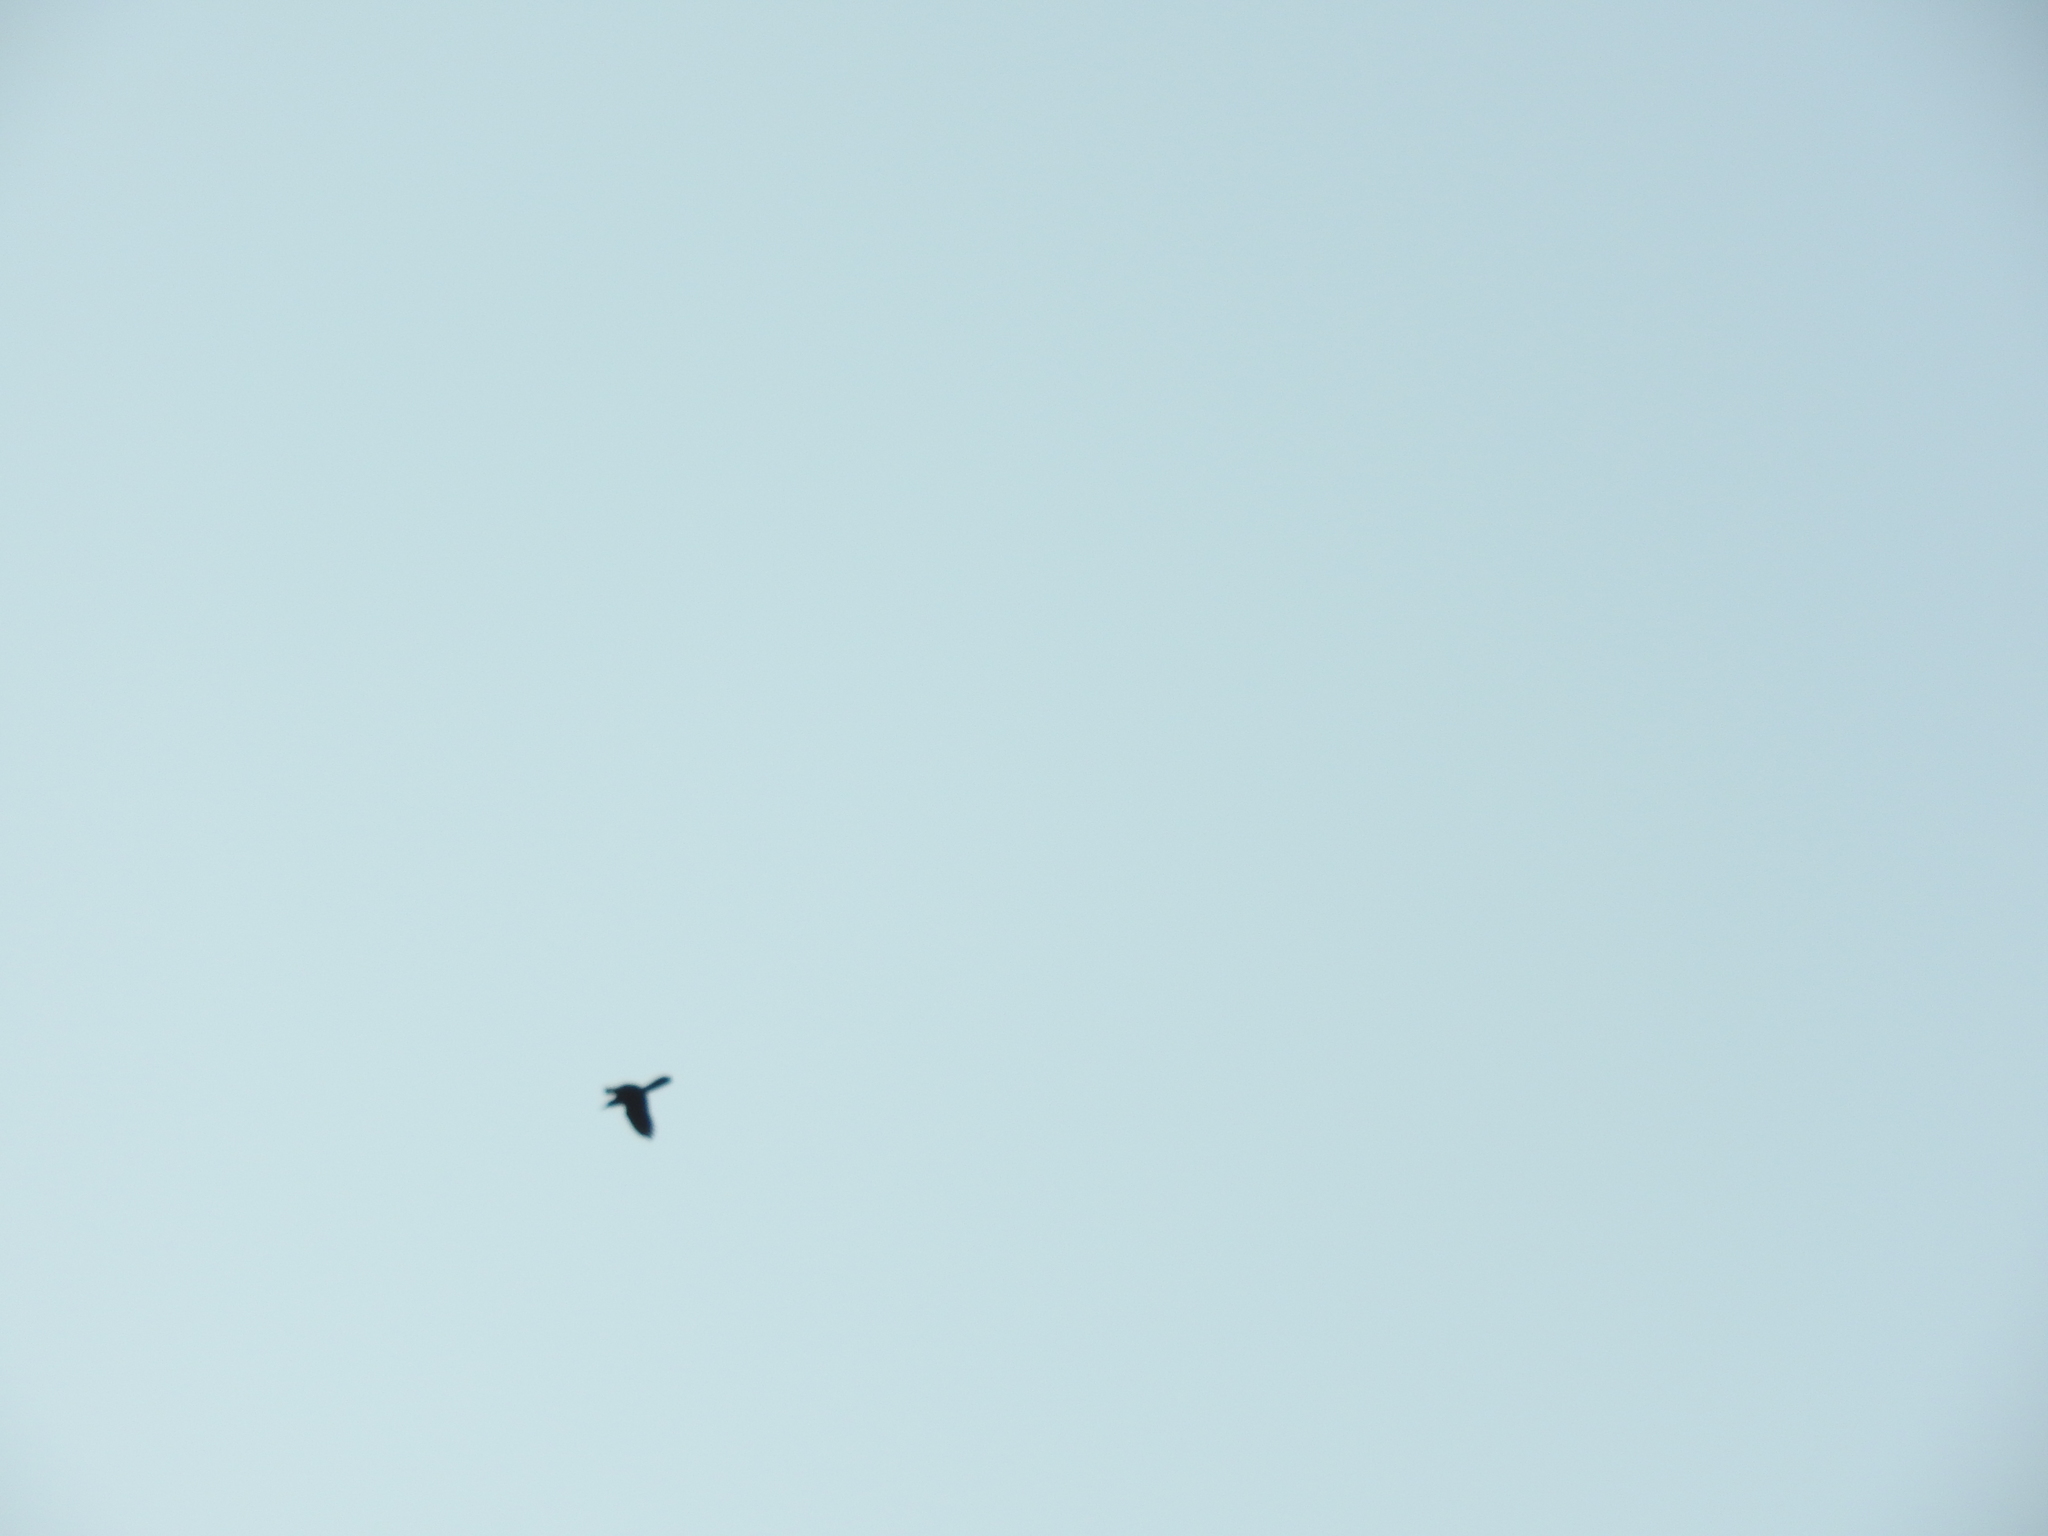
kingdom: Animalia
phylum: Chordata
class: Aves
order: Passeriformes
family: Icteridae
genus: Quiscalus
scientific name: Quiscalus mexicanus
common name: Great-tailed grackle
